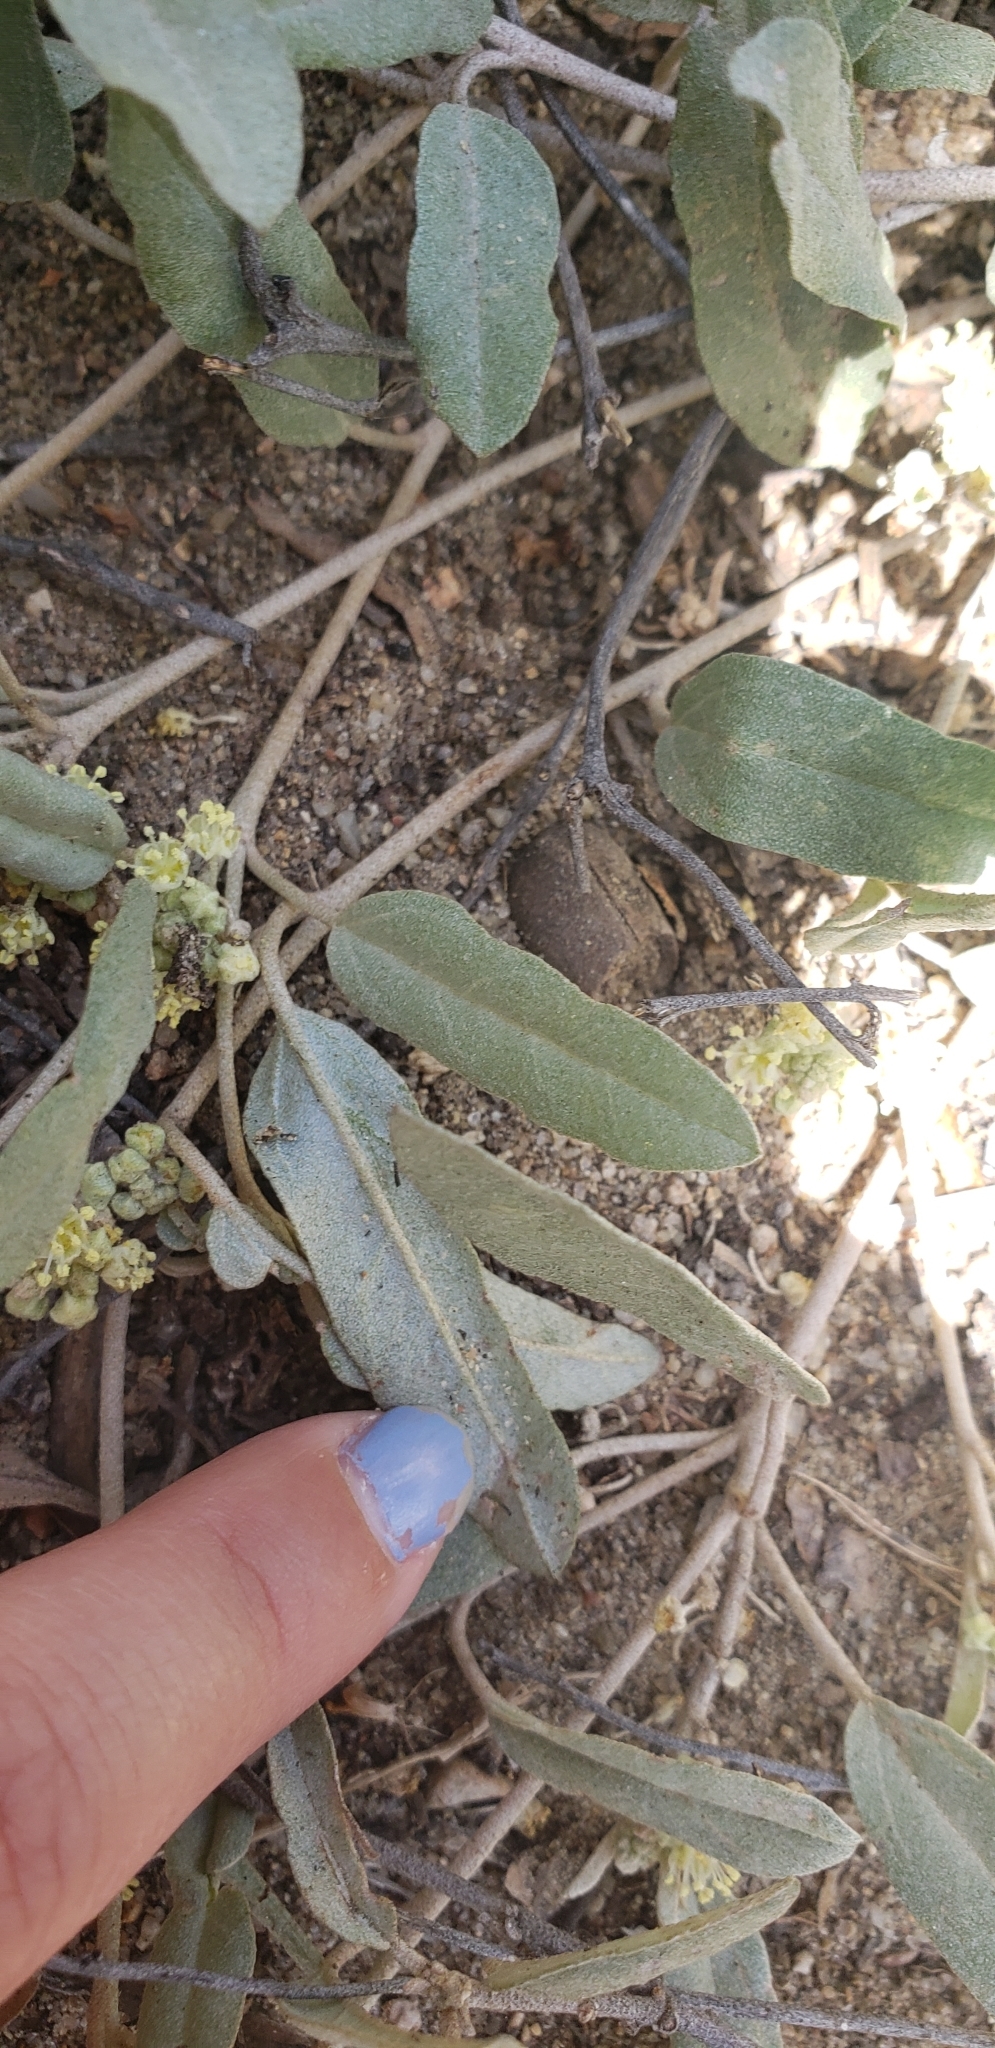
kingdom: Plantae
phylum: Tracheophyta
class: Magnoliopsida
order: Malpighiales
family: Euphorbiaceae
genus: Croton
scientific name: Croton californicus
